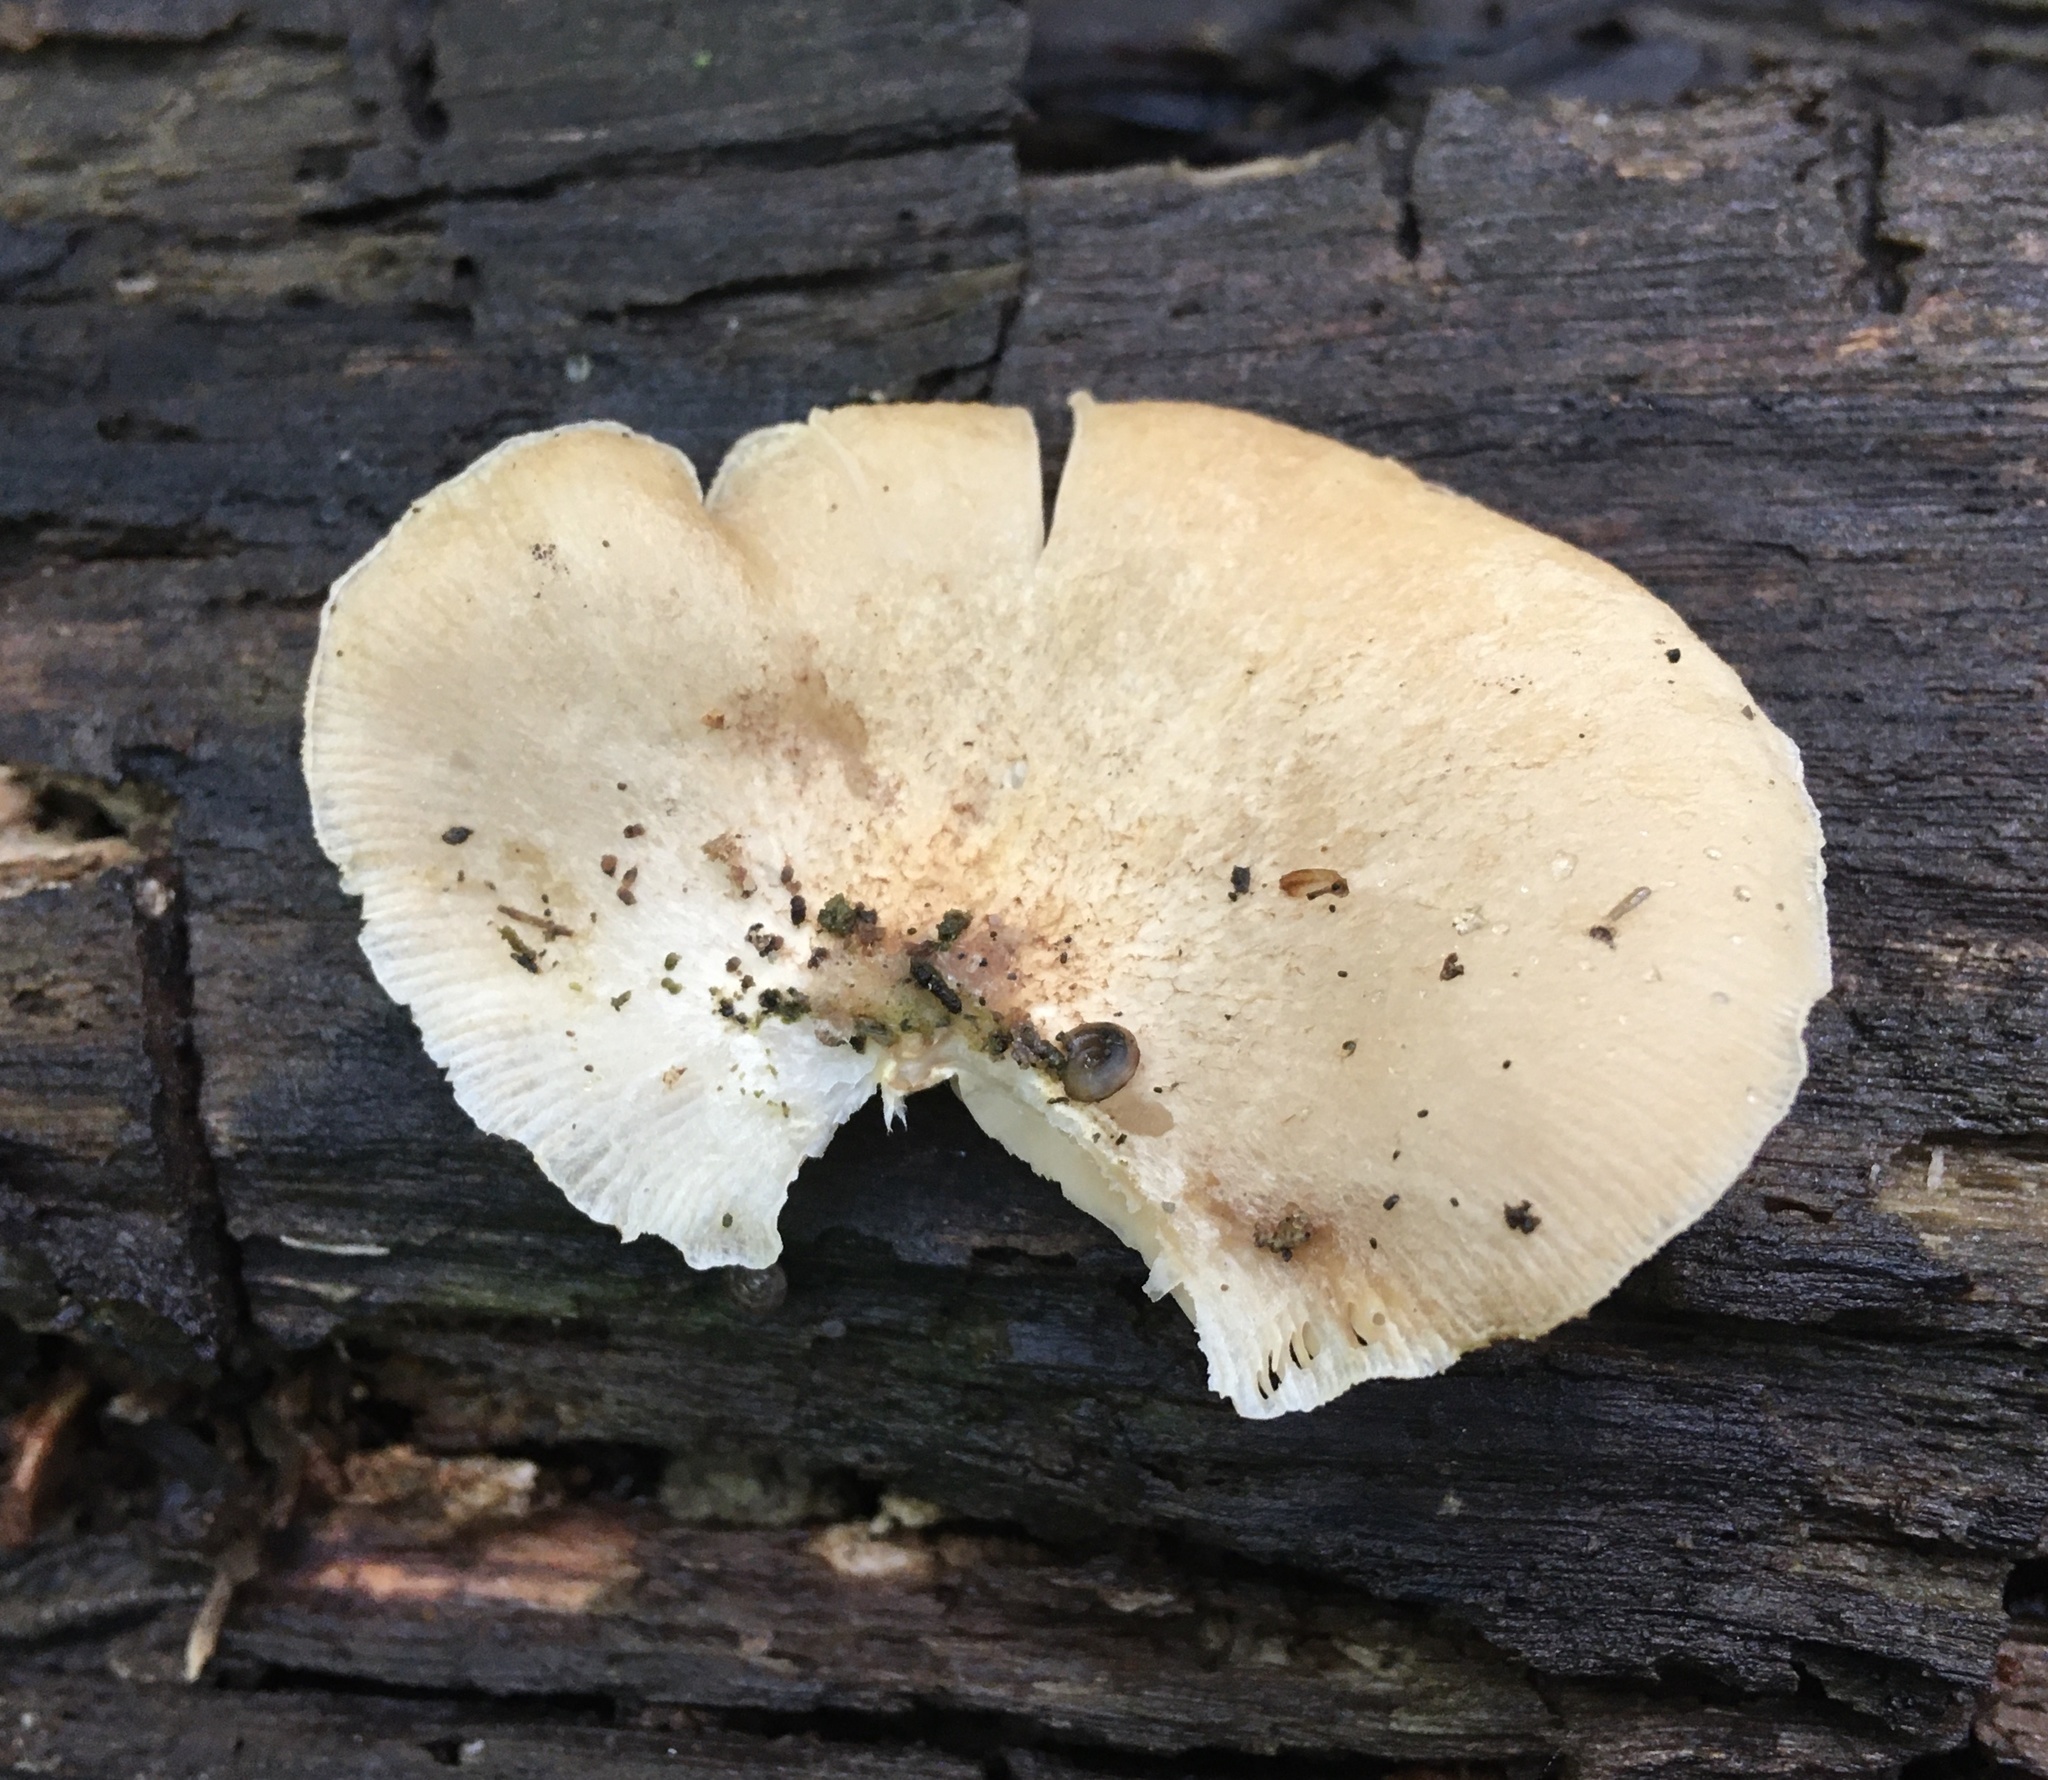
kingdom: Fungi
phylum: Basidiomycota
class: Agaricomycetes
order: Agaricales
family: Crepidotaceae
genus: Crepidotus
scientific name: Crepidotus mollis
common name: Peeling oysterling
